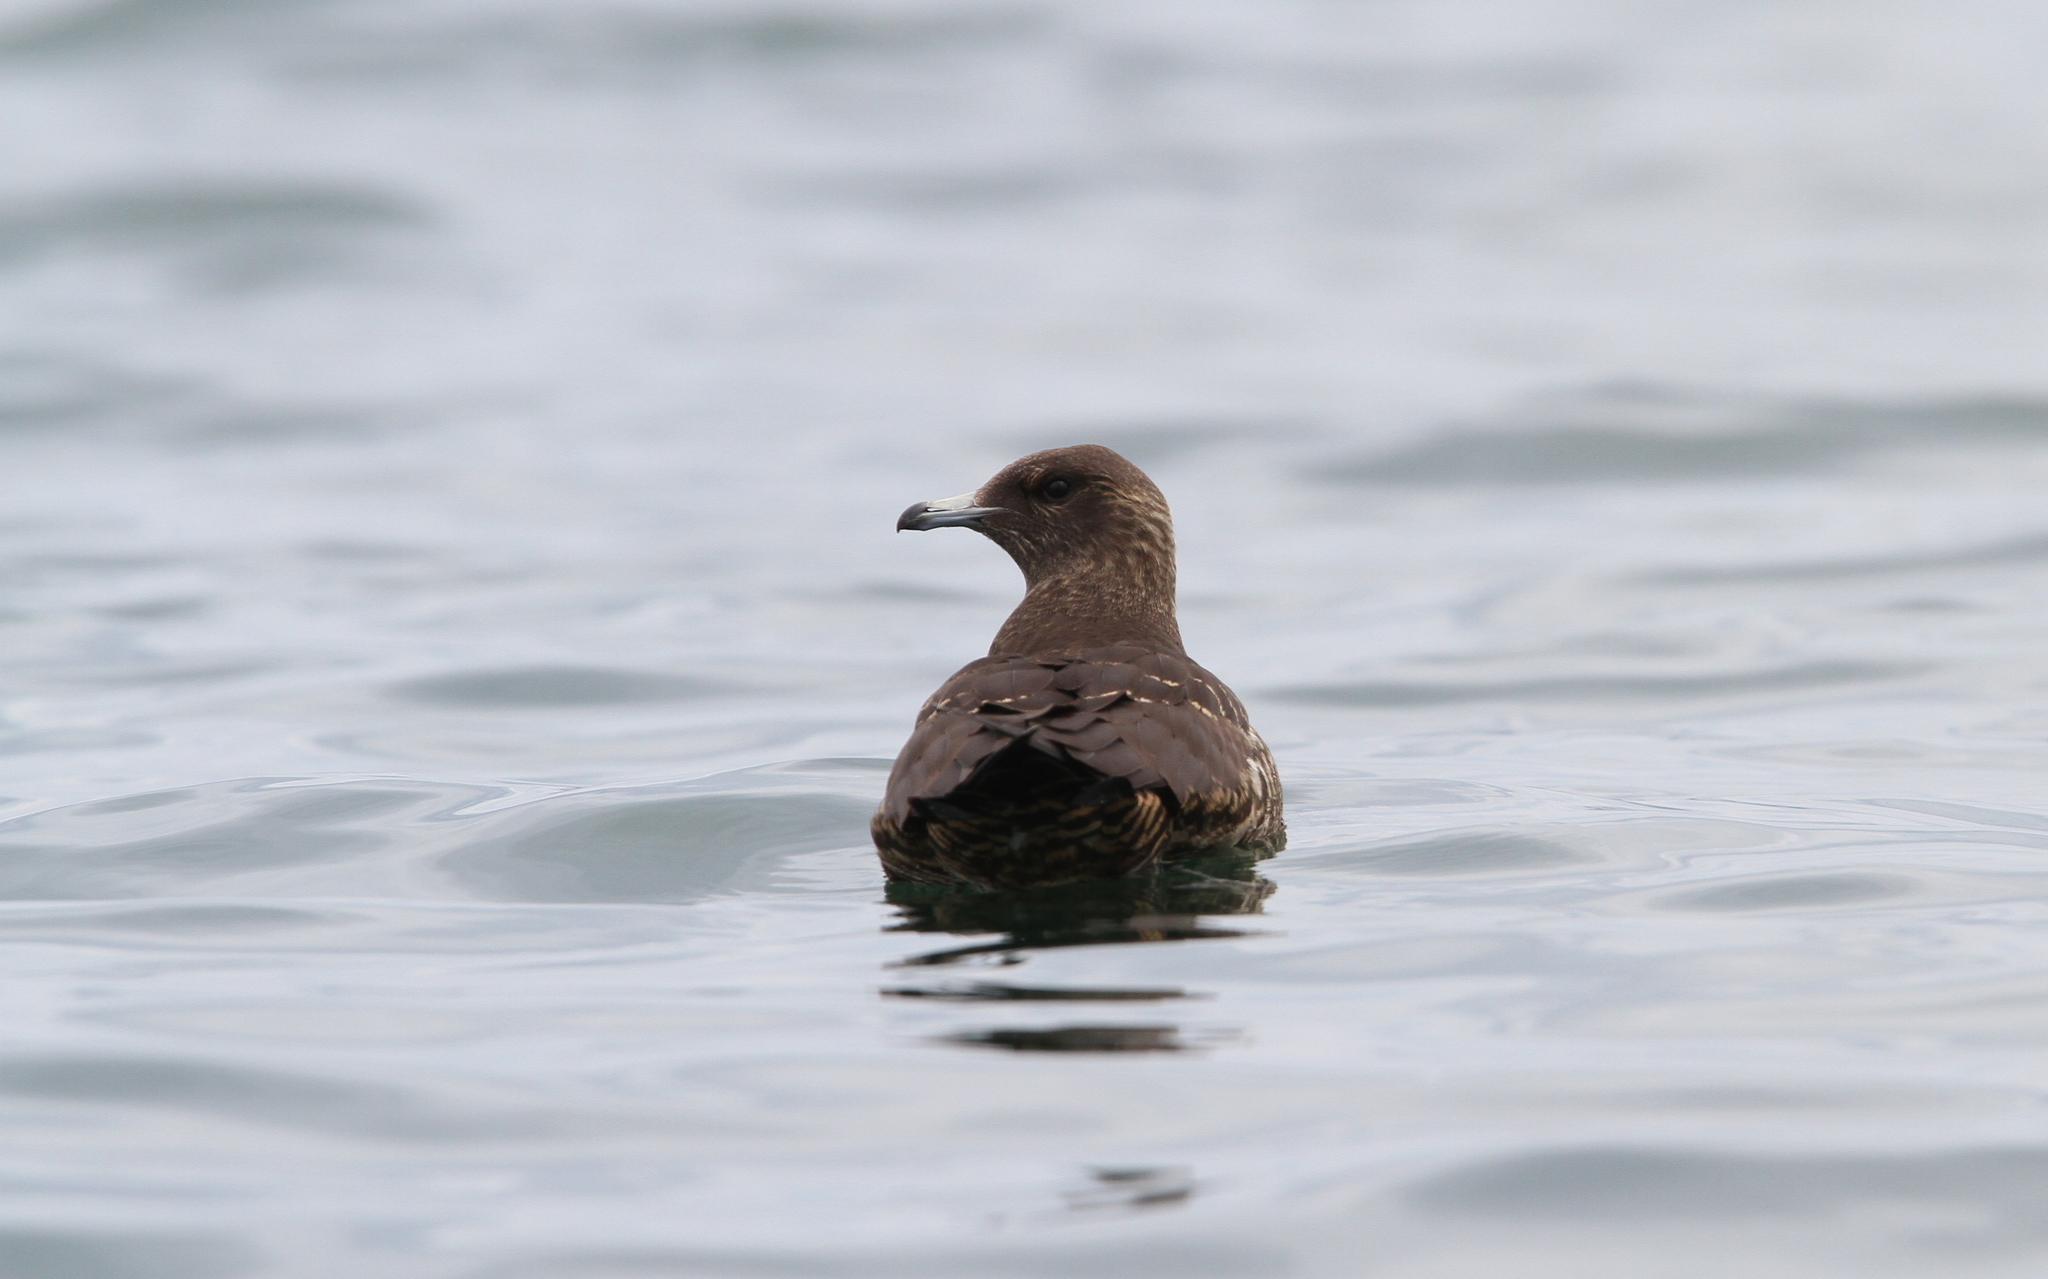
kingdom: Animalia
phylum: Chordata
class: Aves
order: Charadriiformes
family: Stercorariidae
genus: Stercorarius
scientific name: Stercorarius parasiticus
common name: Parasitic jaeger
